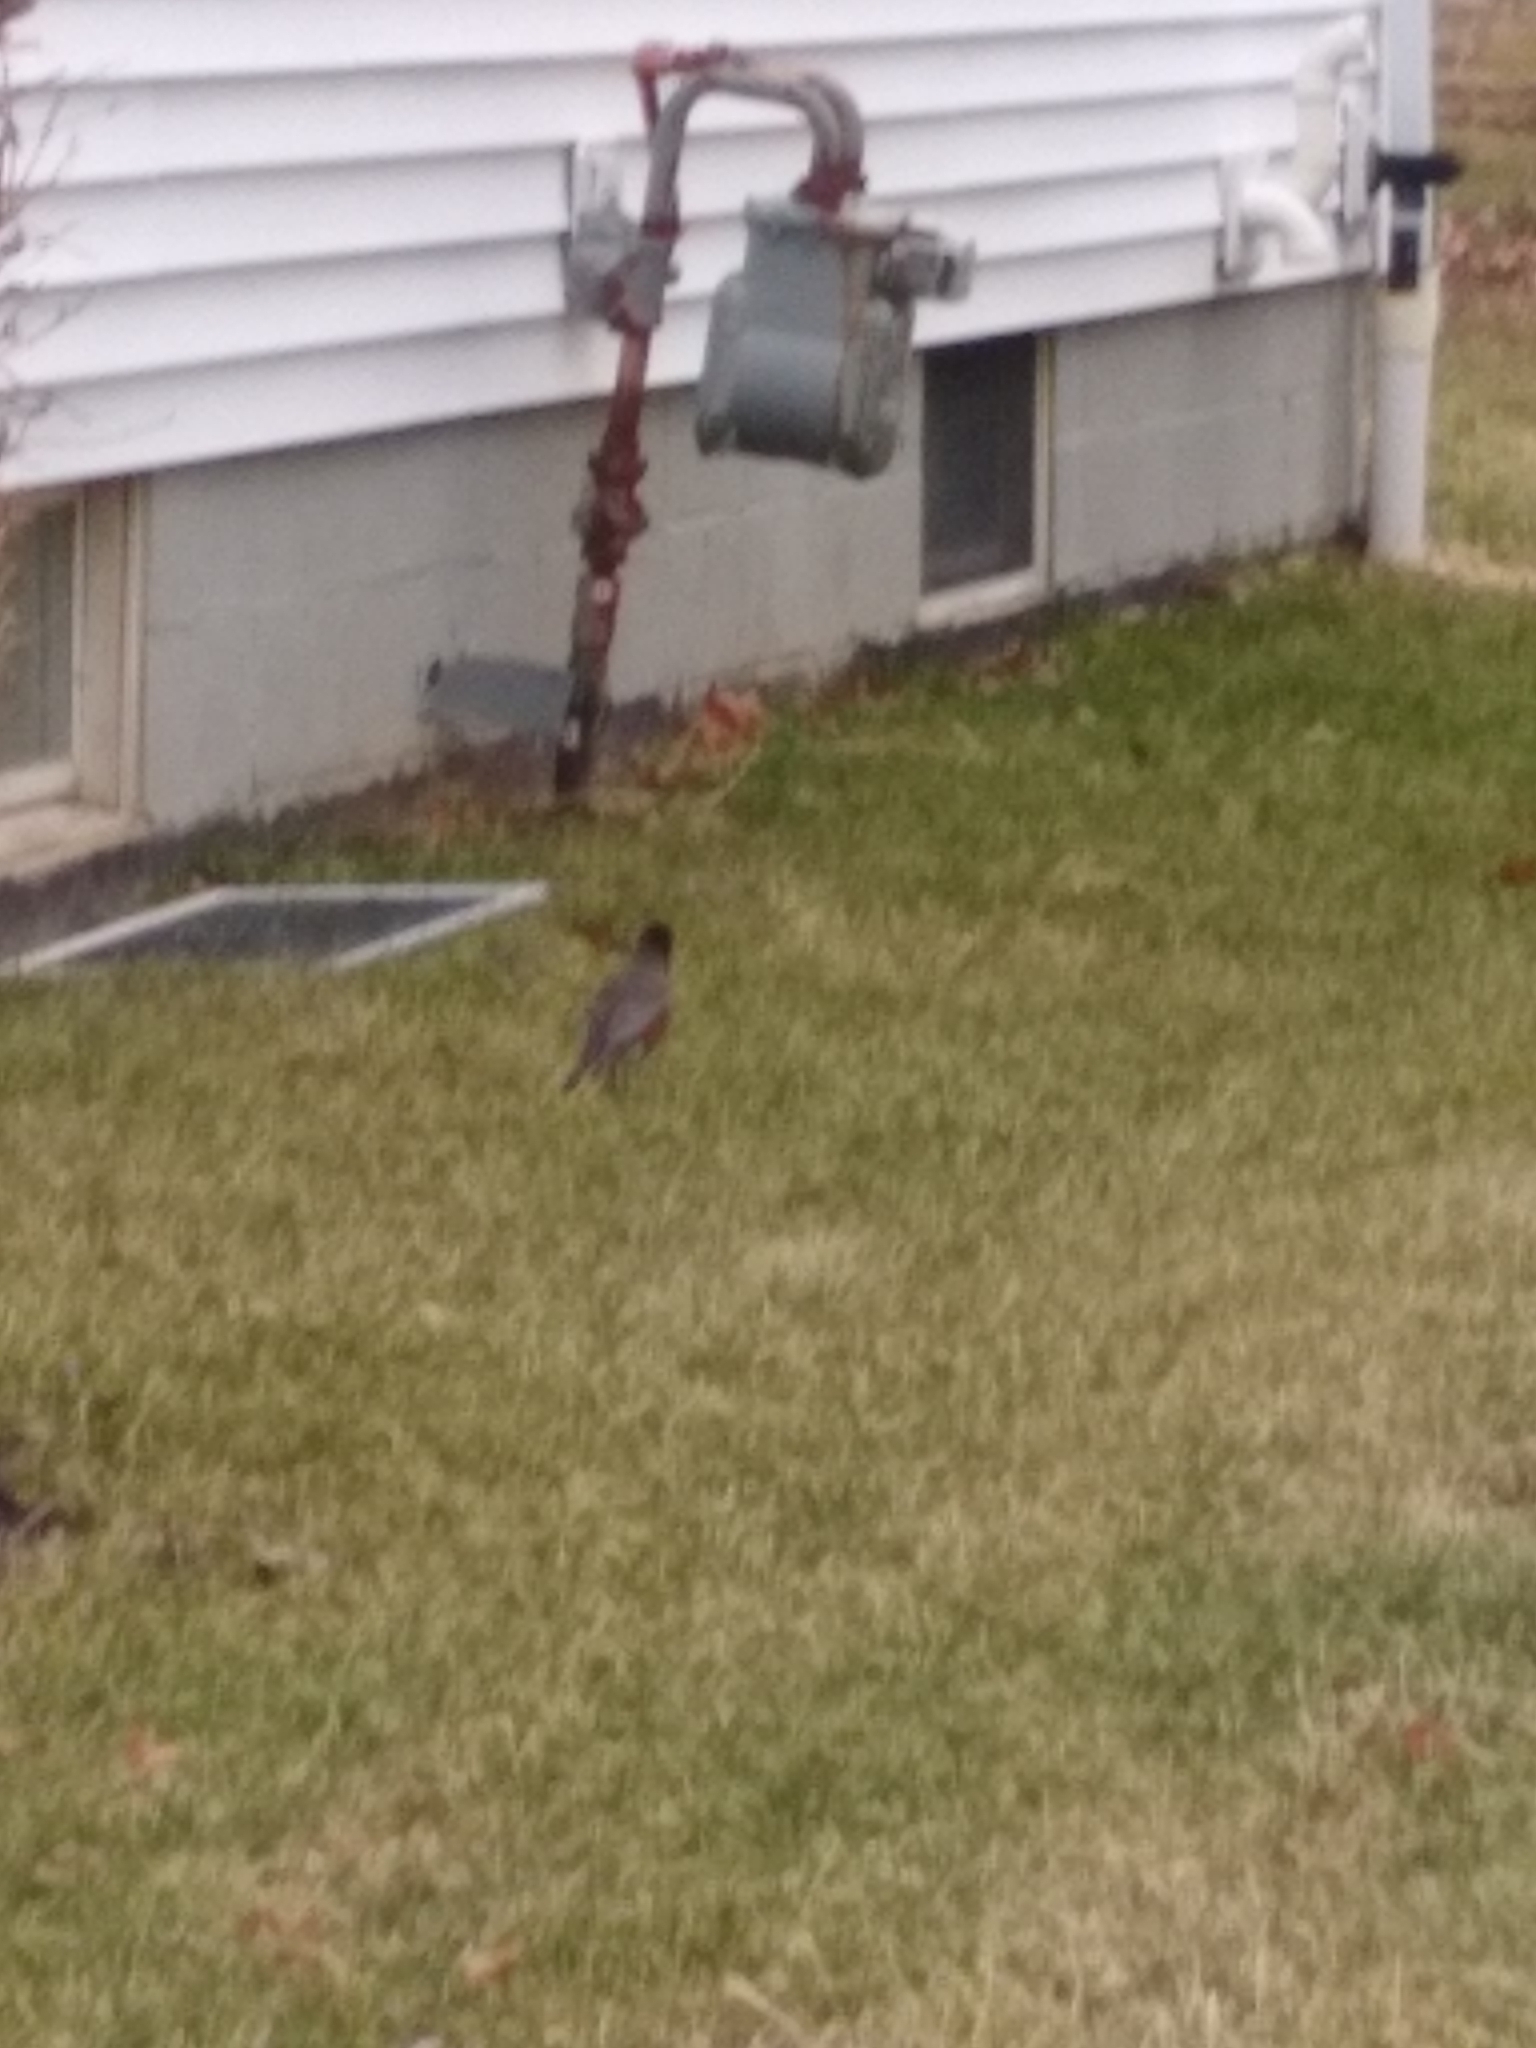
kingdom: Animalia
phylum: Chordata
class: Aves
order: Passeriformes
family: Turdidae
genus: Turdus
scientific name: Turdus migratorius
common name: American robin
